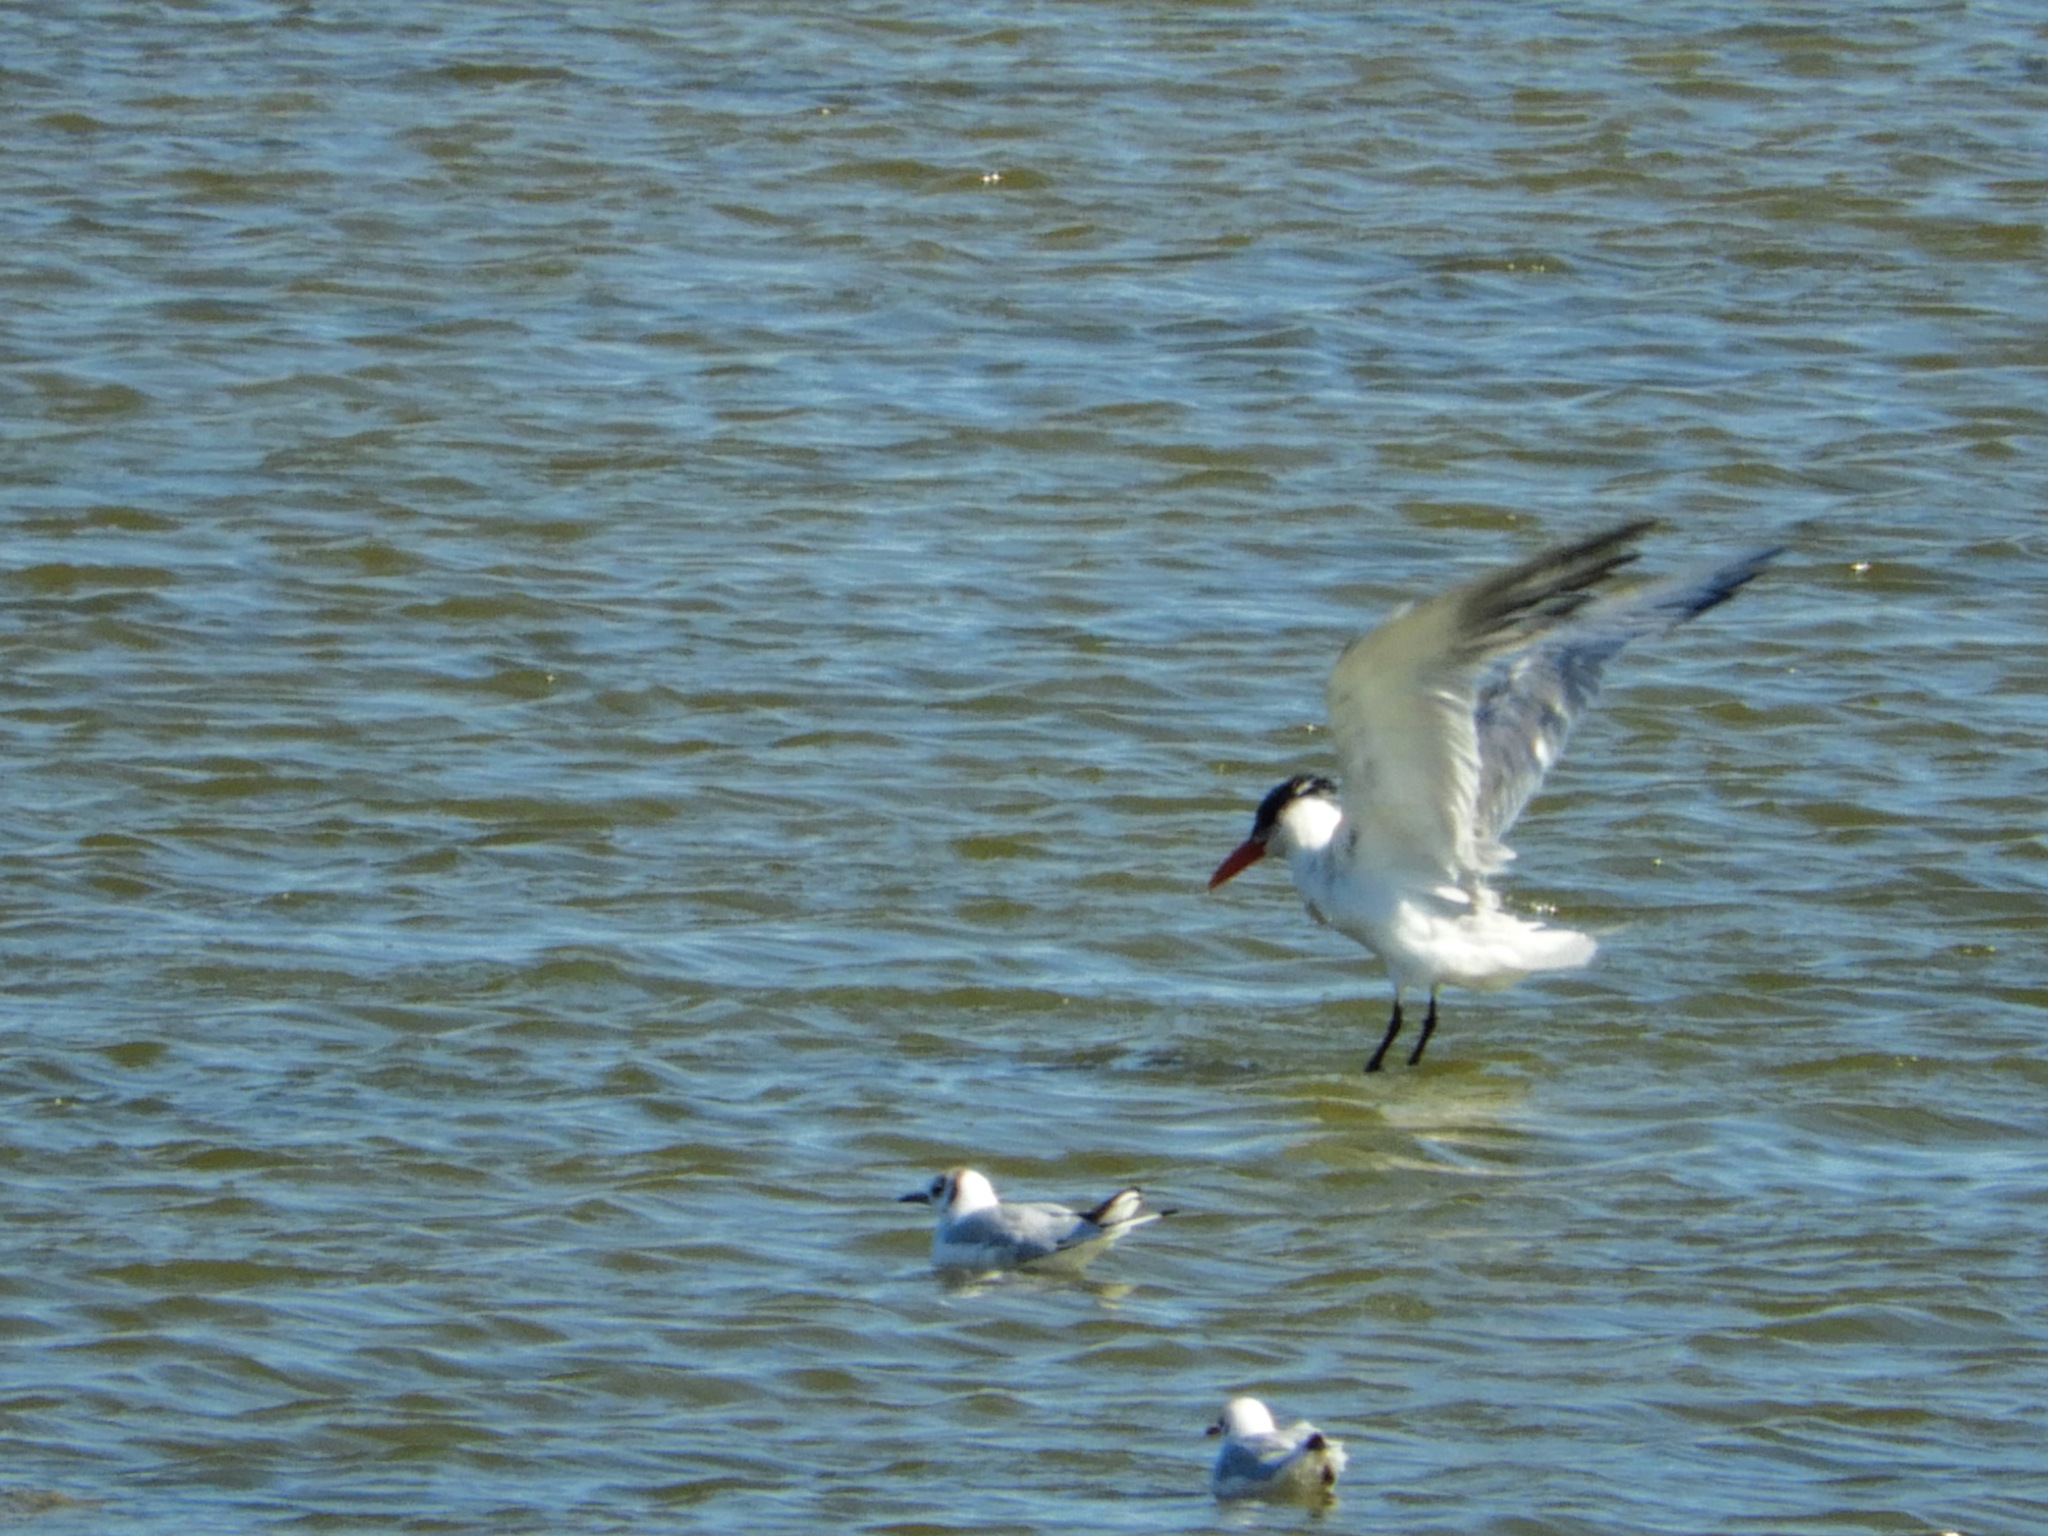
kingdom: Animalia
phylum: Chordata
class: Aves
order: Charadriiformes
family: Laridae
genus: Hydroprogne
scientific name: Hydroprogne caspia
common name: Caspian tern
